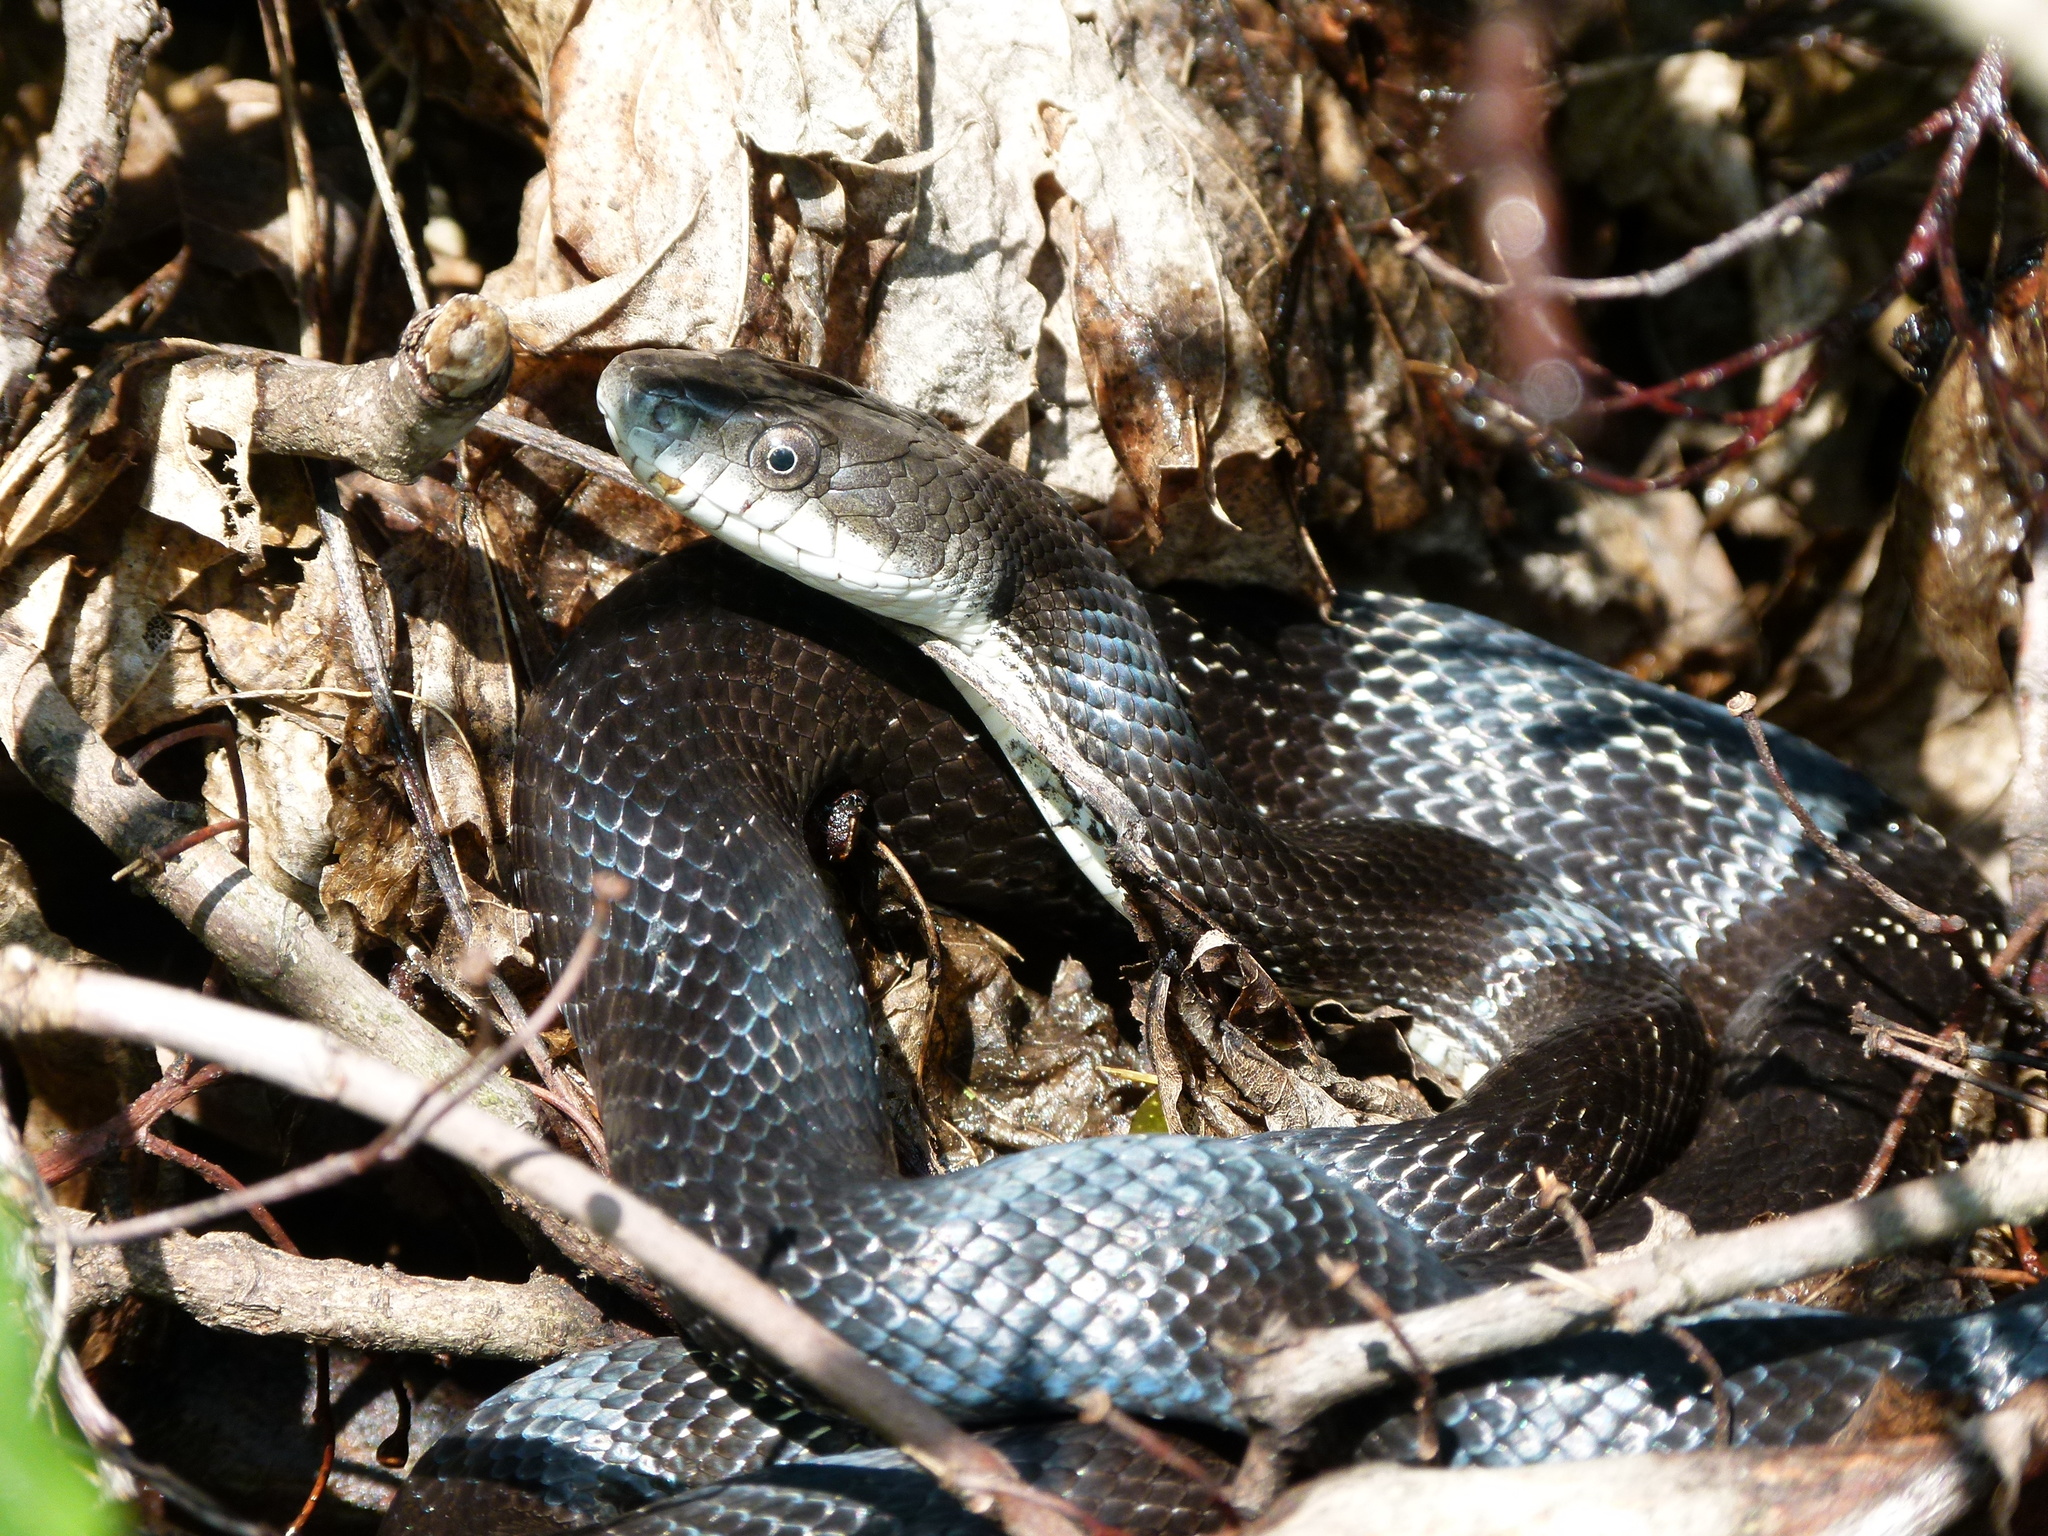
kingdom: Animalia
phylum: Chordata
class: Squamata
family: Colubridae
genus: Pantherophis
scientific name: Pantherophis alleghaniensis
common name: Eastern rat snake
